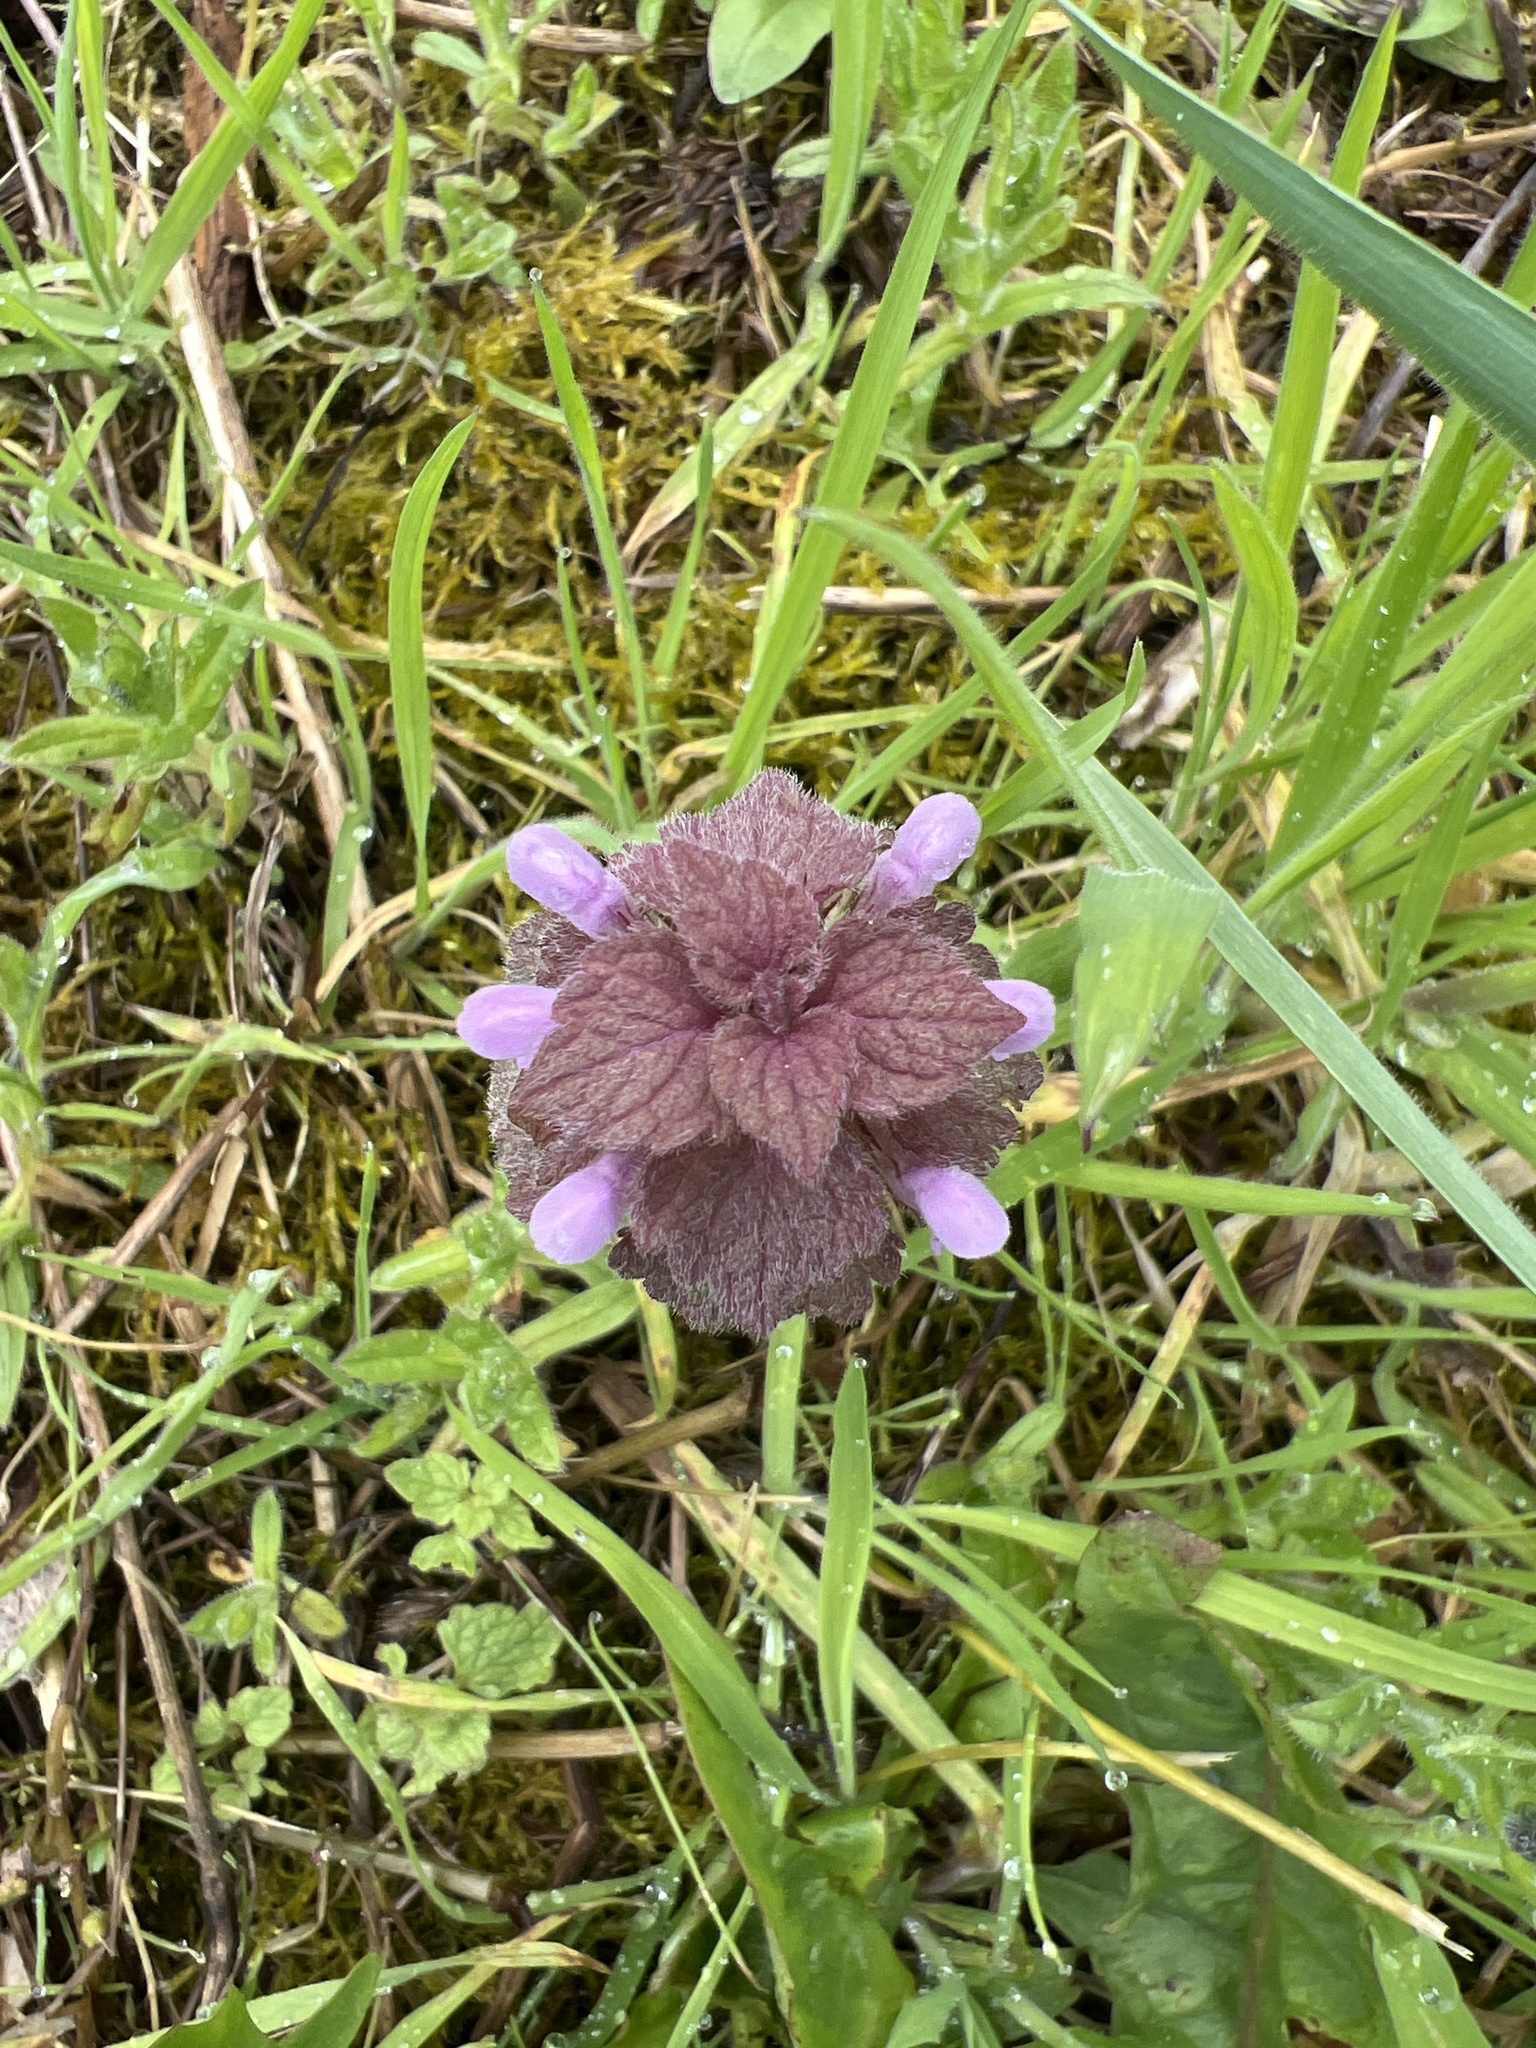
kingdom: Plantae
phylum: Tracheophyta
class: Magnoliopsida
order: Lamiales
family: Lamiaceae
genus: Lamium
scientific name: Lamium purpureum
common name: Red dead-nettle
